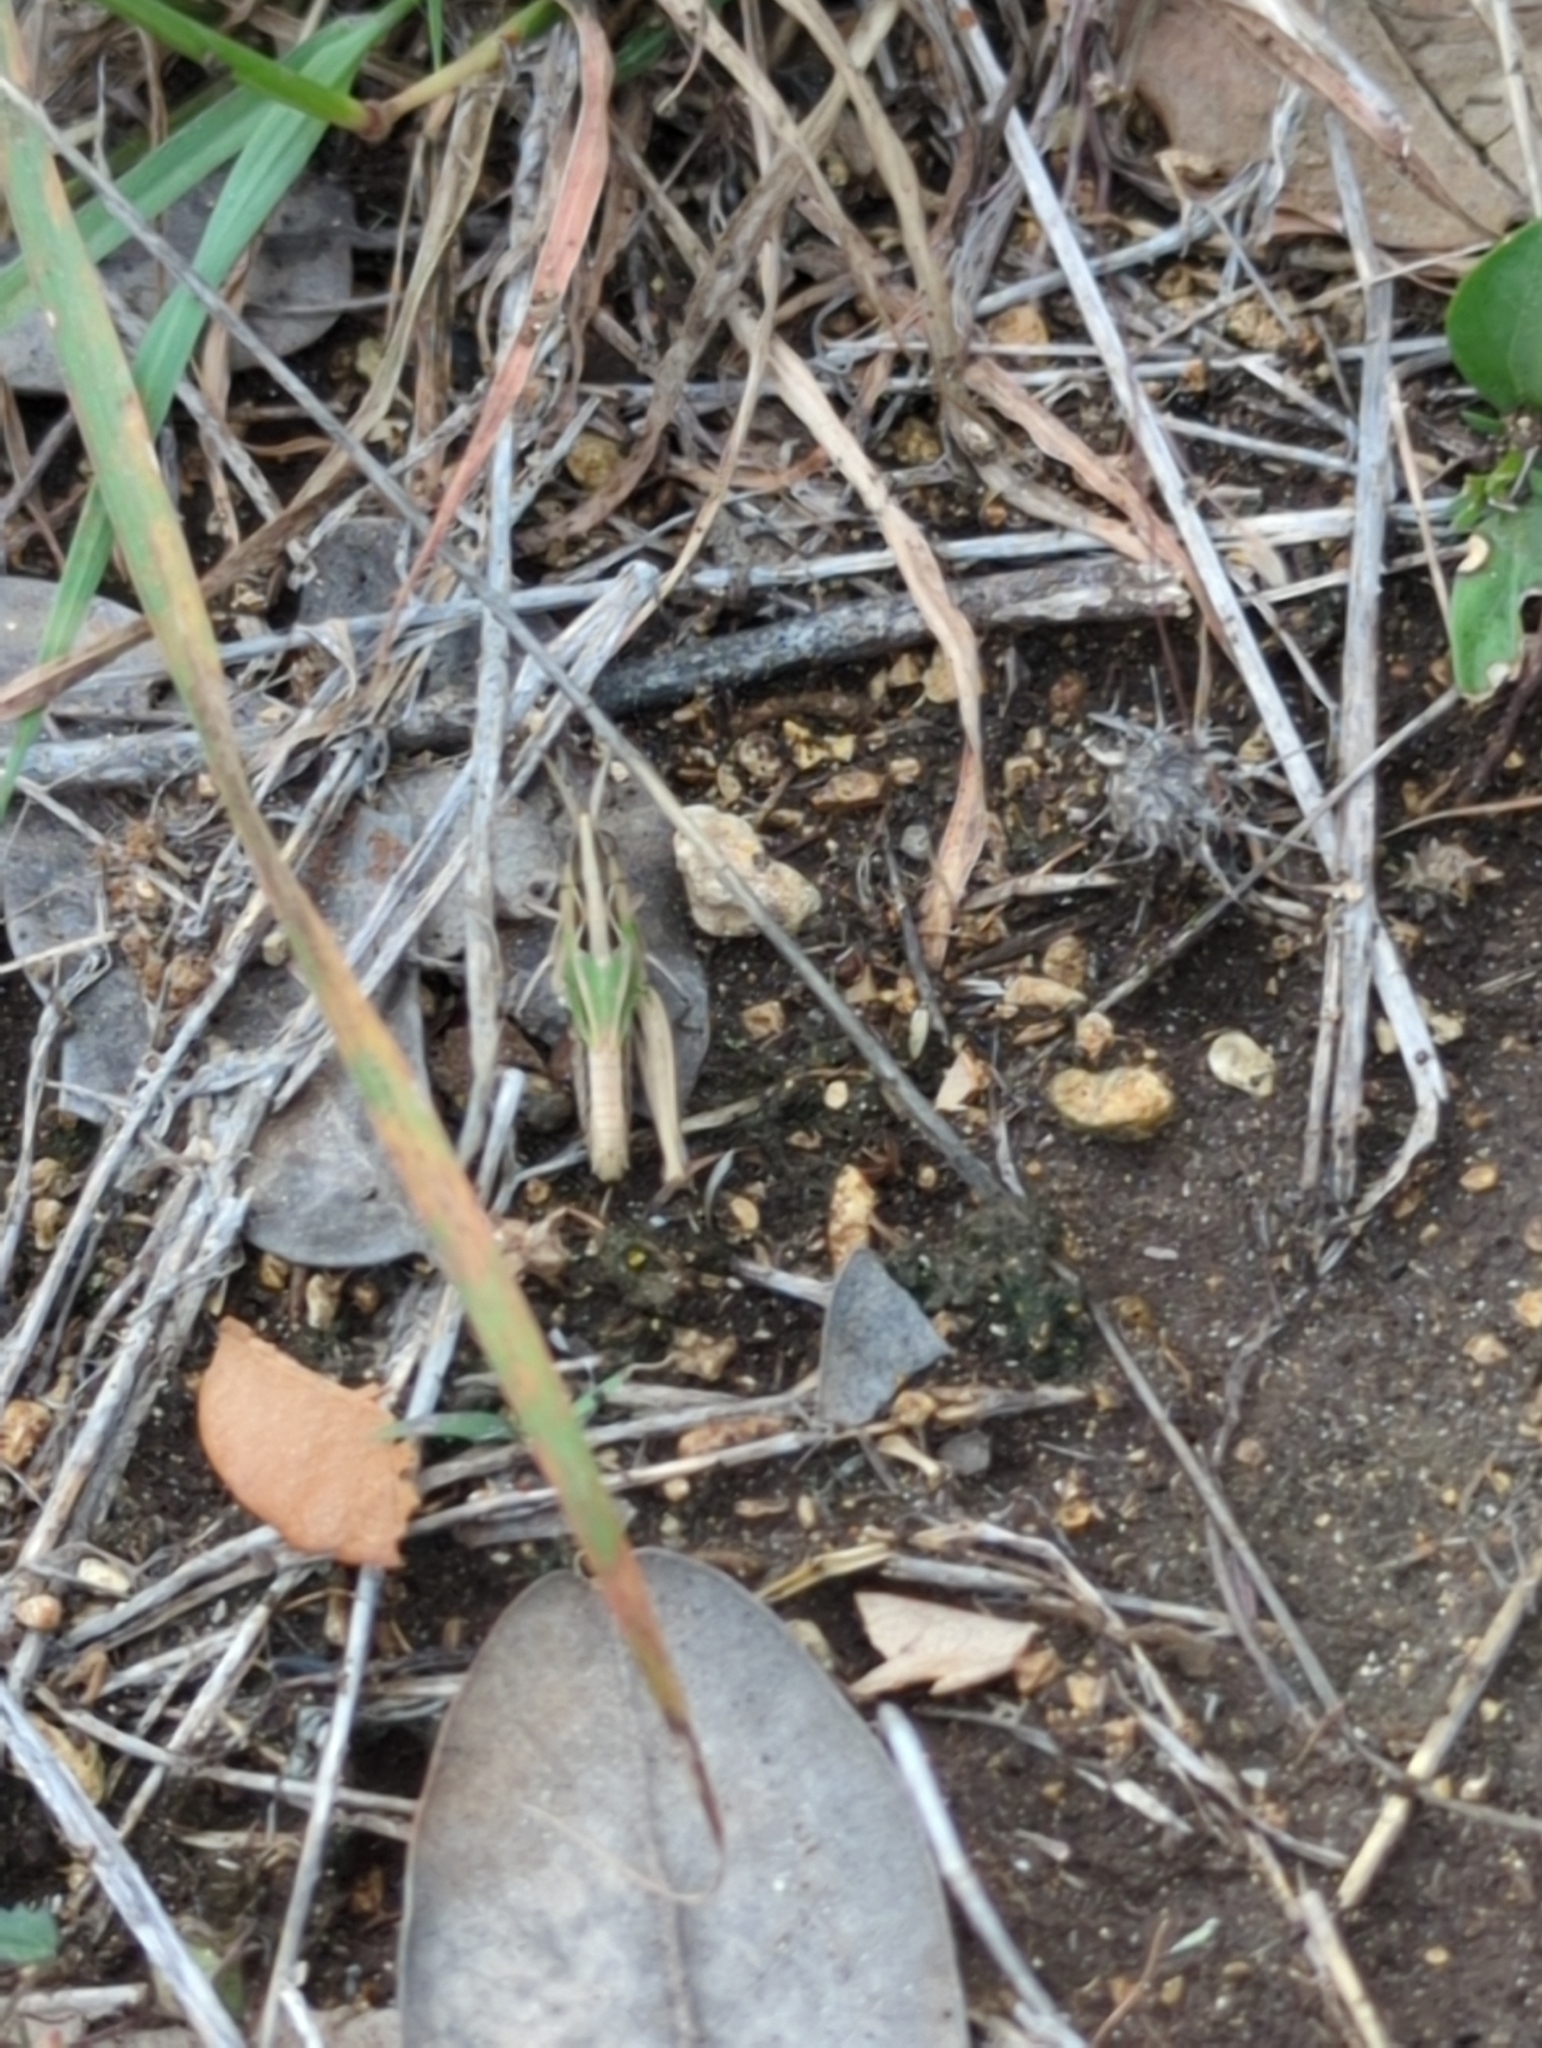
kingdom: Animalia
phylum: Arthropoda
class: Insecta
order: Orthoptera
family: Acrididae
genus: Eritettix
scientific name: Eritettix abortivus
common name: Slant-faced grasshopper
